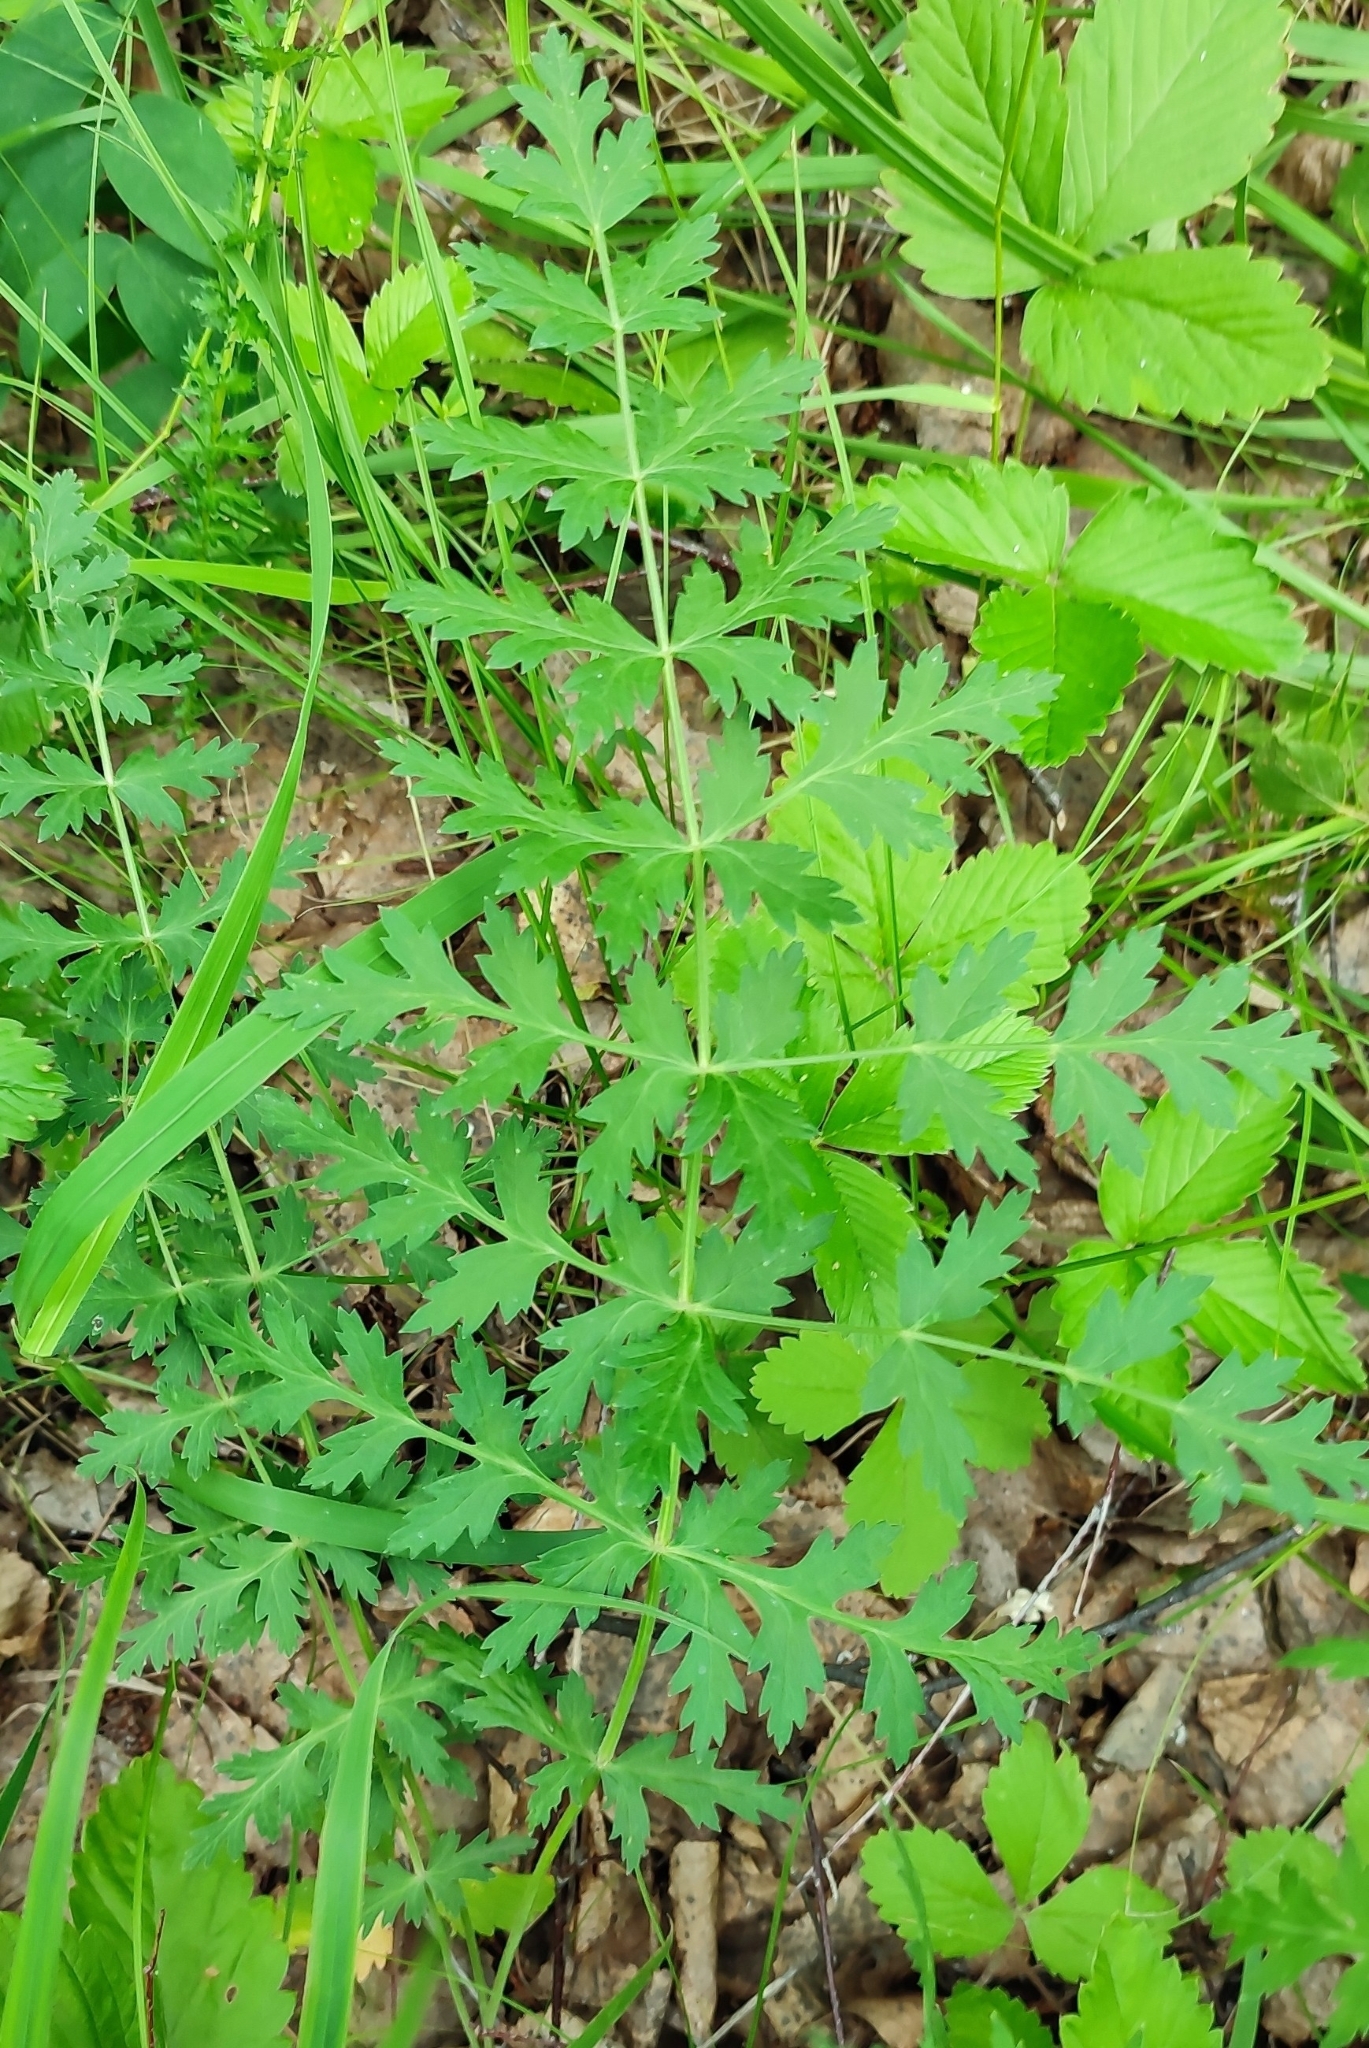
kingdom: Plantae
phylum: Tracheophyta
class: Magnoliopsida
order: Apiales
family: Apiaceae
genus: Seseli
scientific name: Seseli libanotis
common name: Mooncarrot
